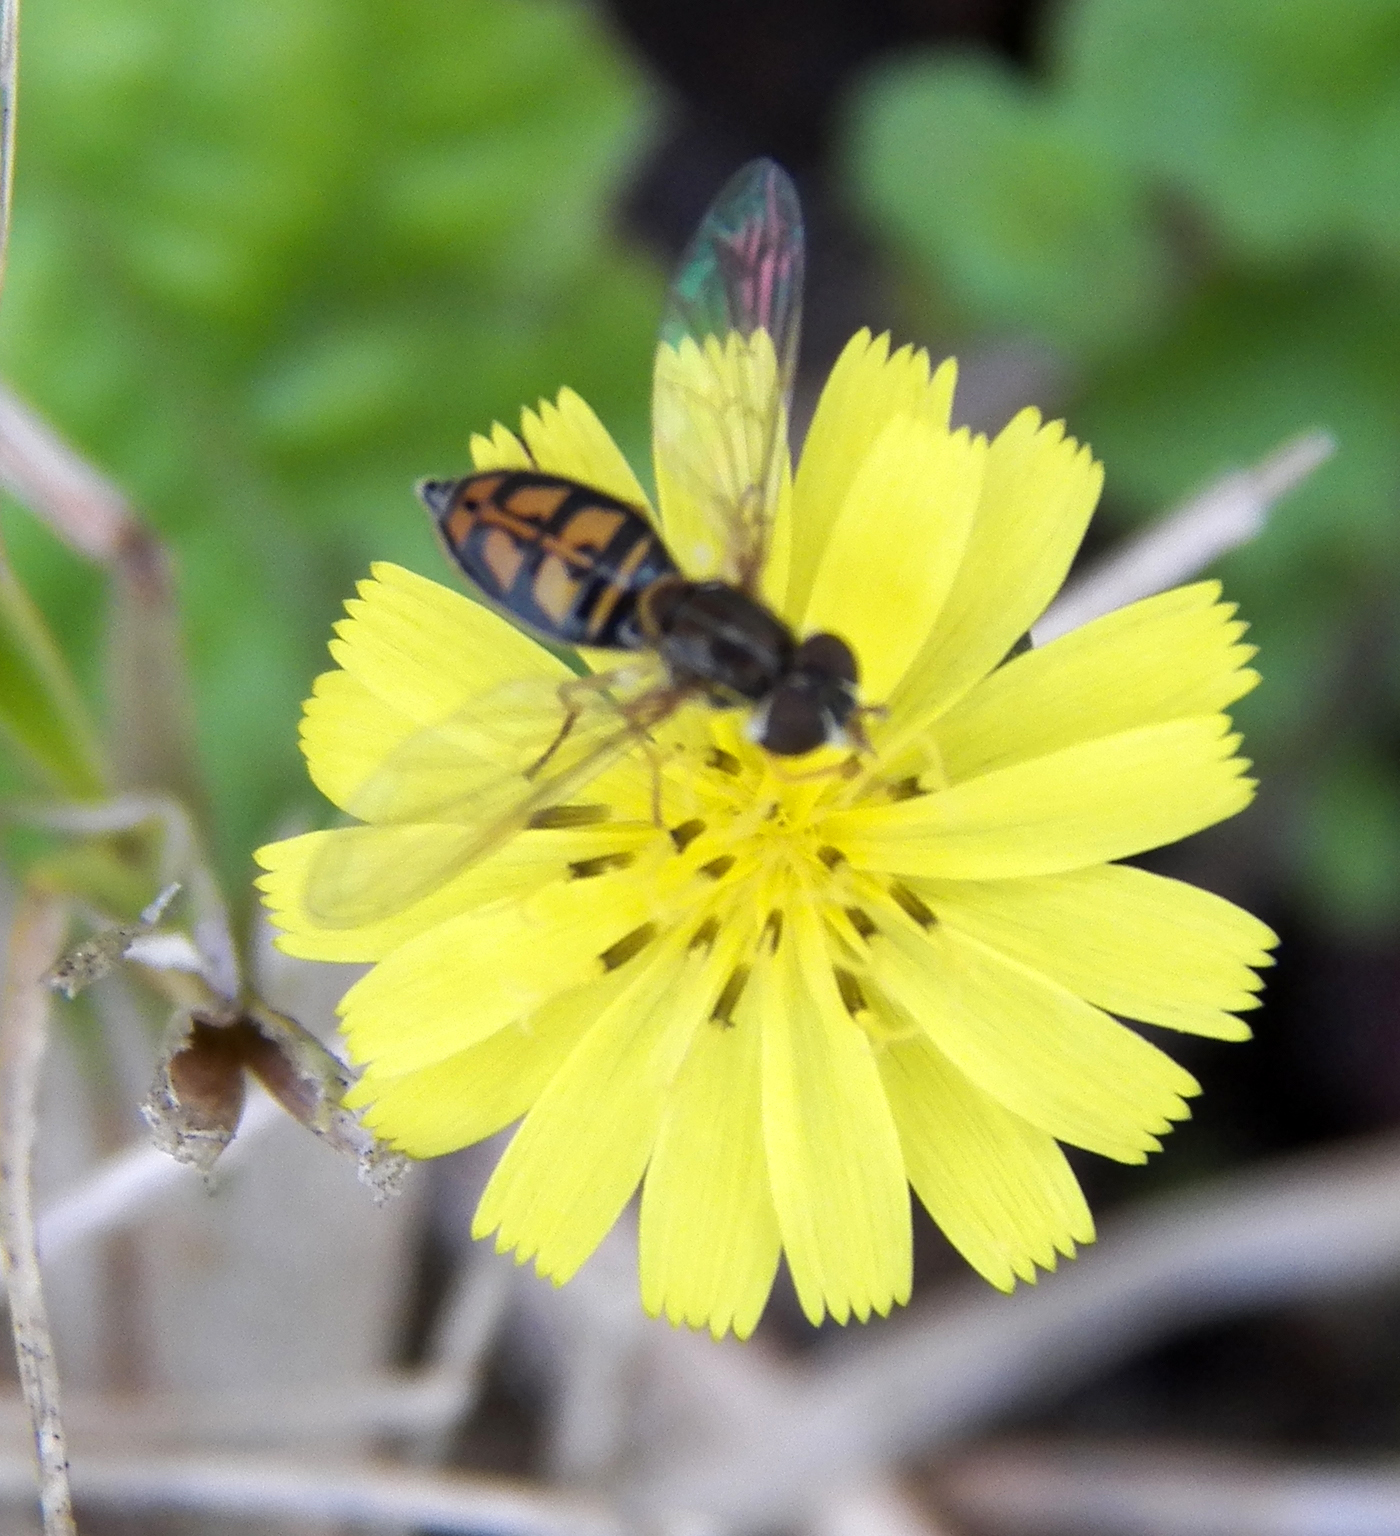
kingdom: Animalia
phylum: Arthropoda
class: Insecta
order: Diptera
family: Syrphidae
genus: Toxomerus
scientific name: Toxomerus marginatus
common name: Syrphid fly
